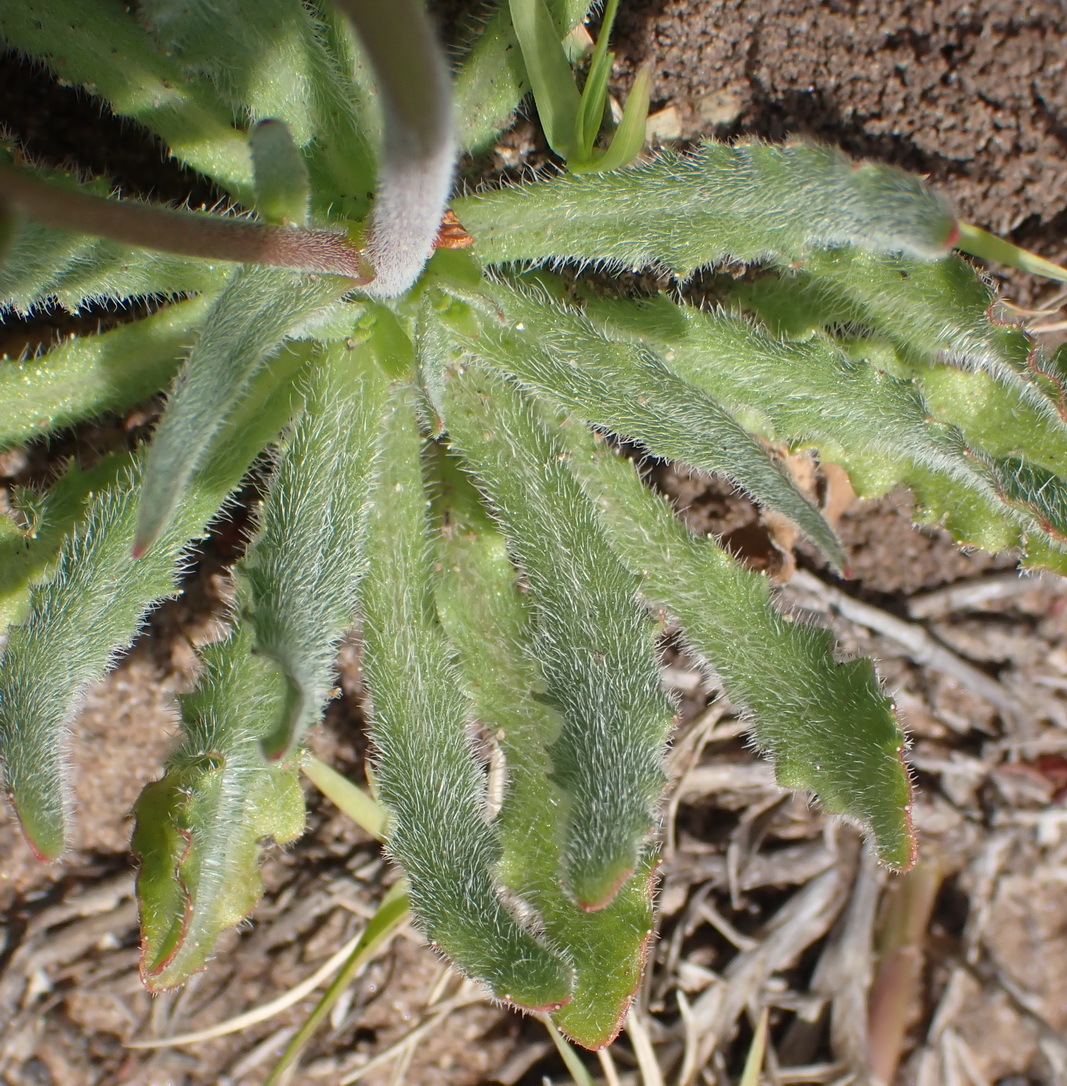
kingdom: Plantae
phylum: Tracheophyta
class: Magnoliopsida
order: Asterales
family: Campanulaceae
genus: Wahlenbergia
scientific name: Wahlenbergia androsacea
